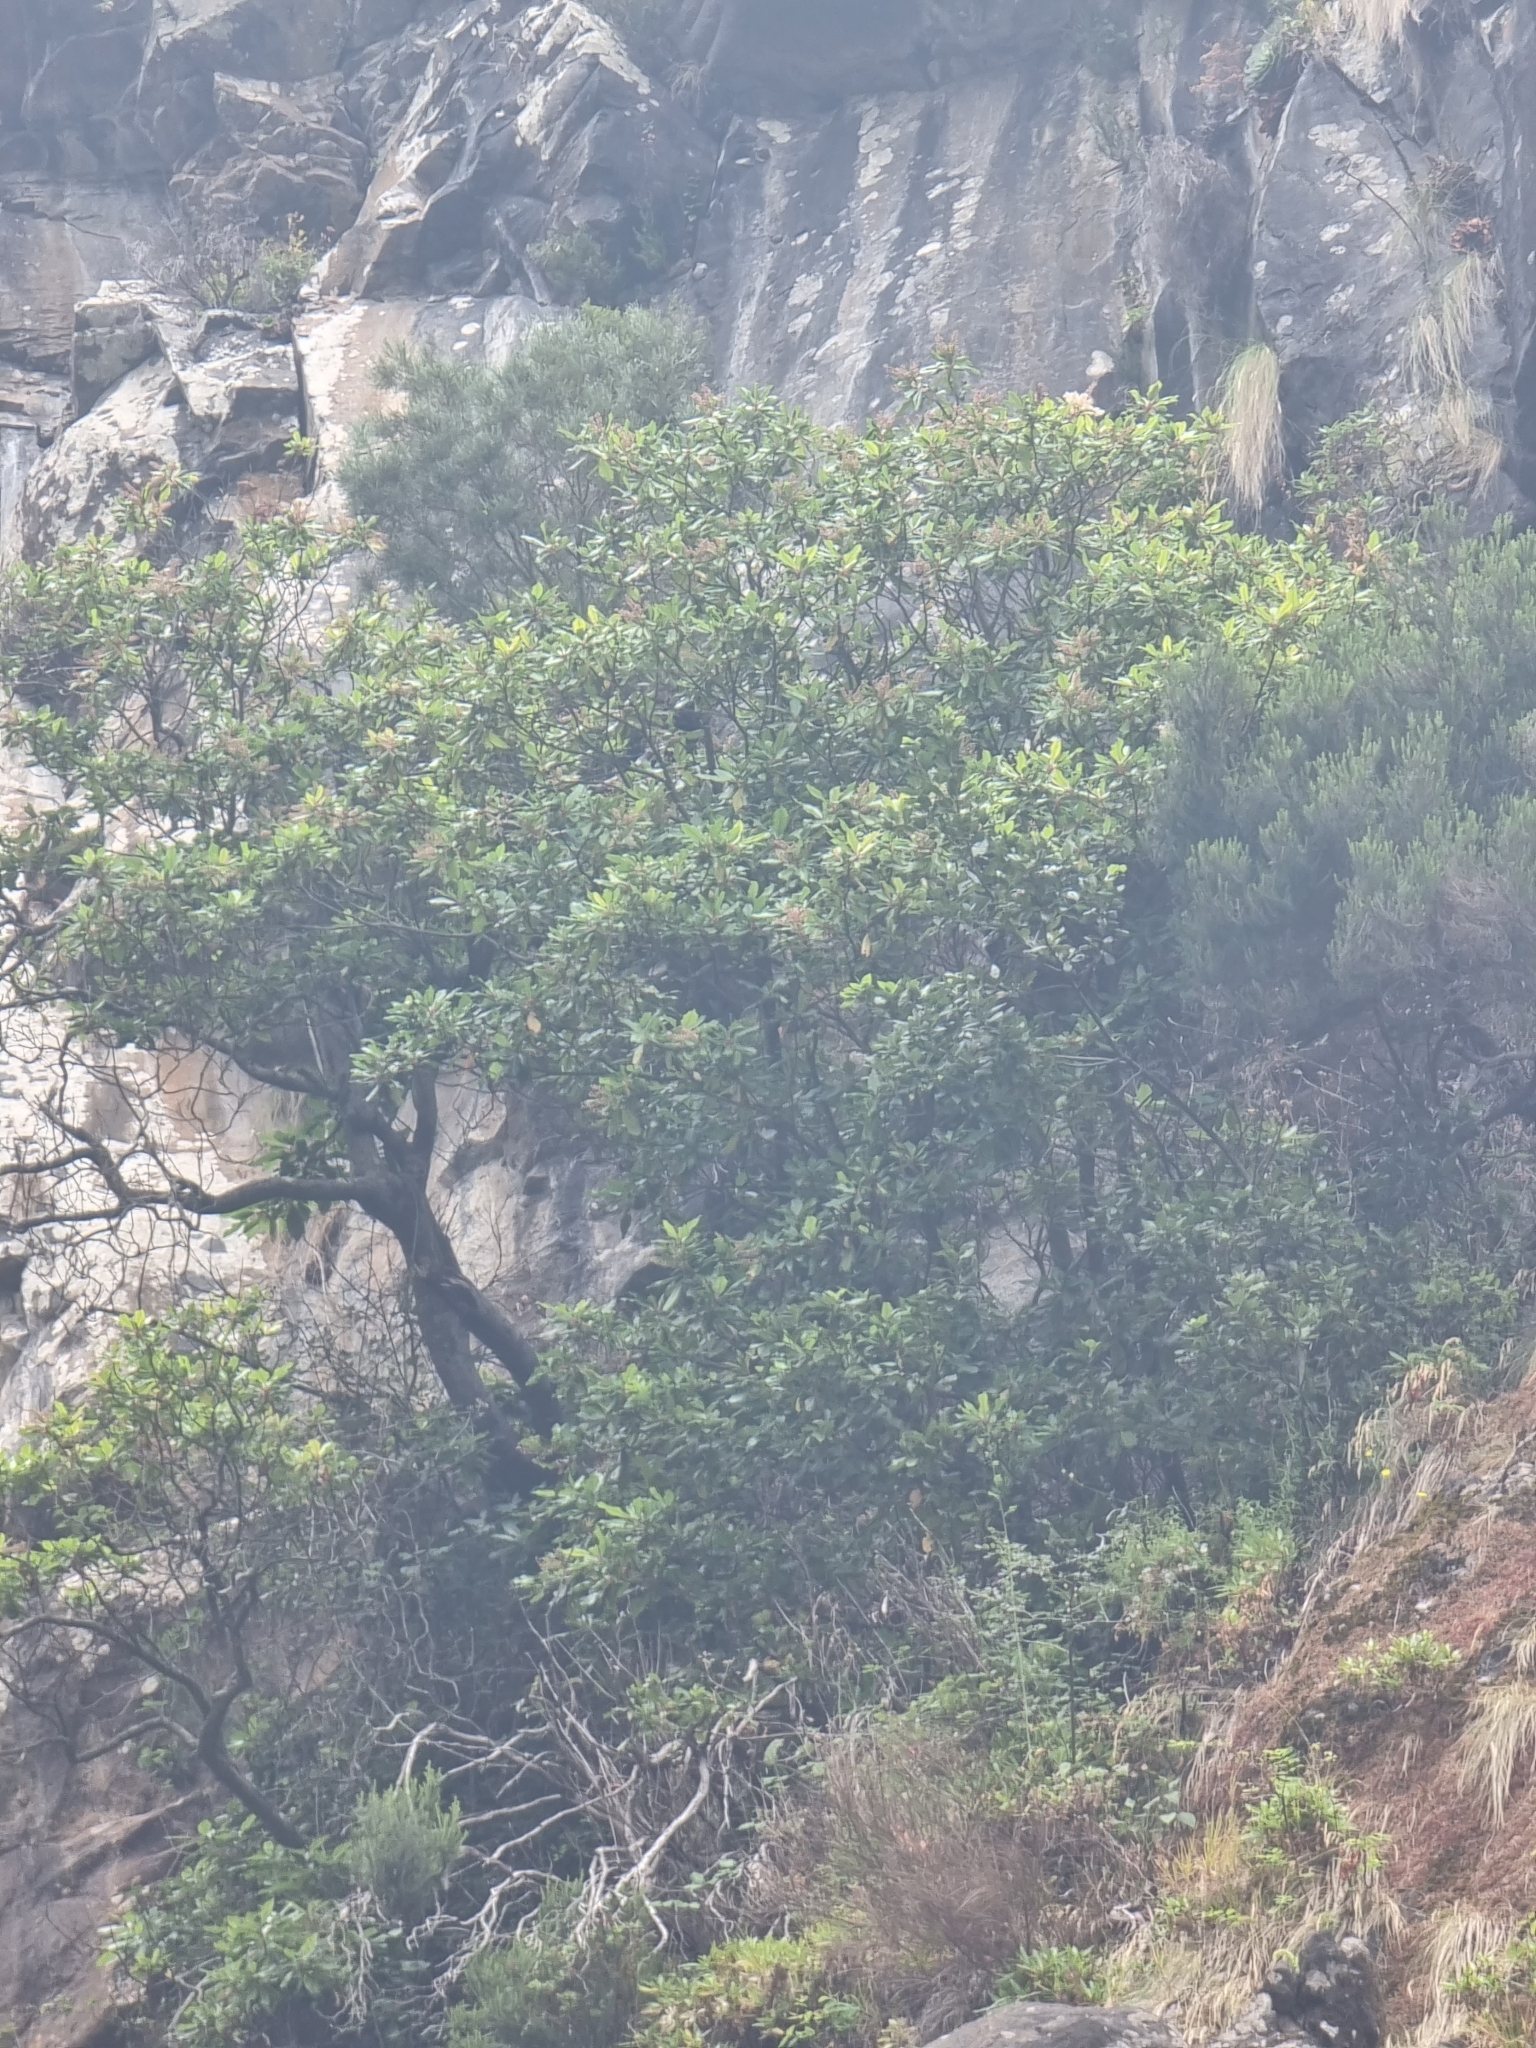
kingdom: Plantae
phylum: Tracheophyta
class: Magnoliopsida
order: Ericales
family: Clethraceae
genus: Clethra
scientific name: Clethra arborea
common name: Lily-of-the-valley-tree
